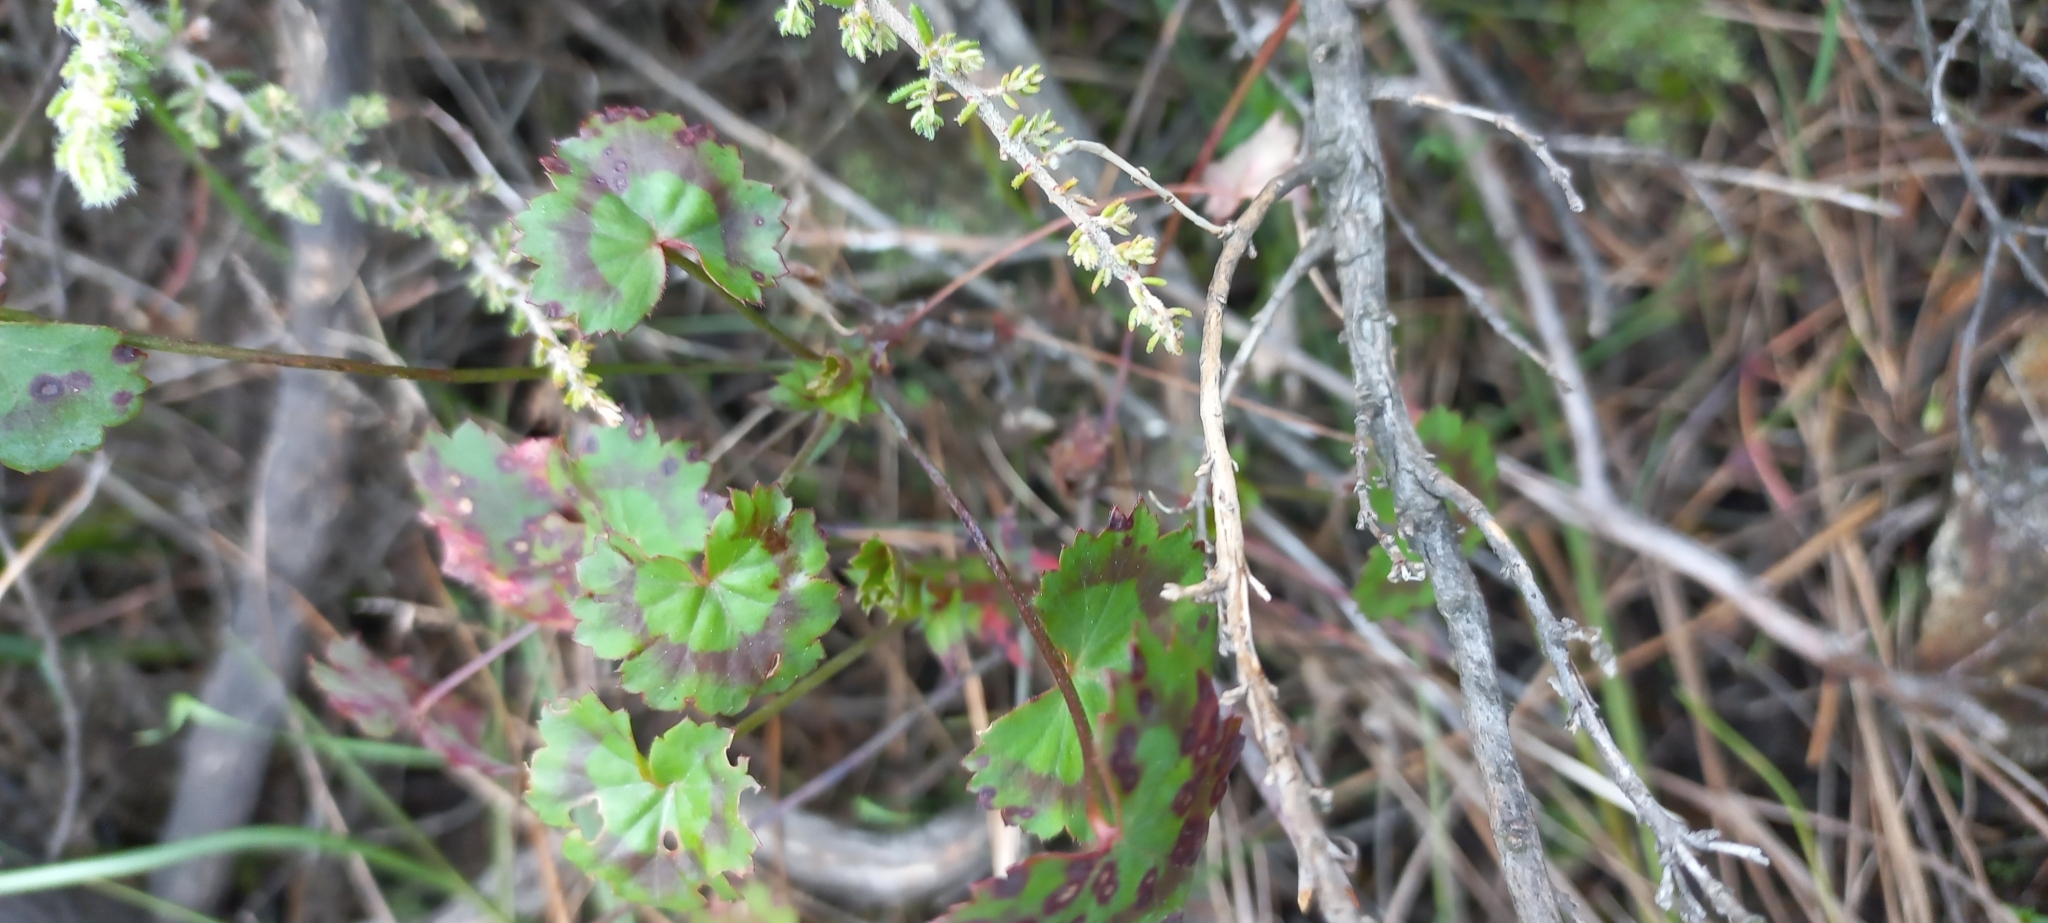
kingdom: Plantae
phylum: Tracheophyta
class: Magnoliopsida
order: Geraniales
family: Geraniaceae
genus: Pelargonium
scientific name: Pelargonium tabulare
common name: Table mountain pelargonium
